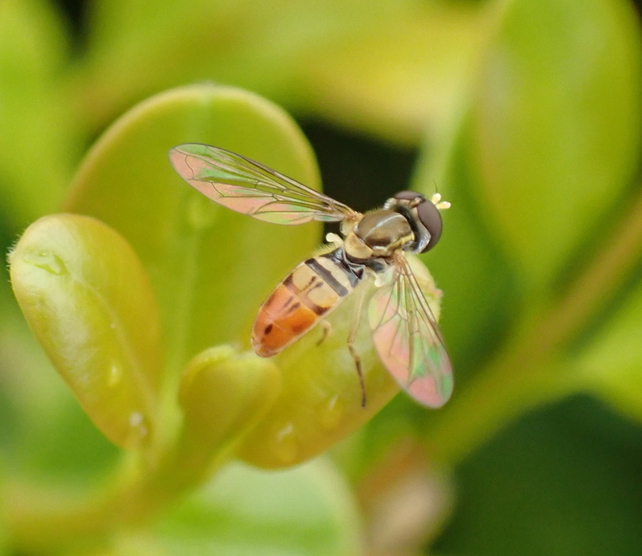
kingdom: Animalia
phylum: Arthropoda
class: Insecta
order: Diptera
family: Syrphidae
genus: Toxomerus
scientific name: Toxomerus marginatus
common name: Syrphid fly
